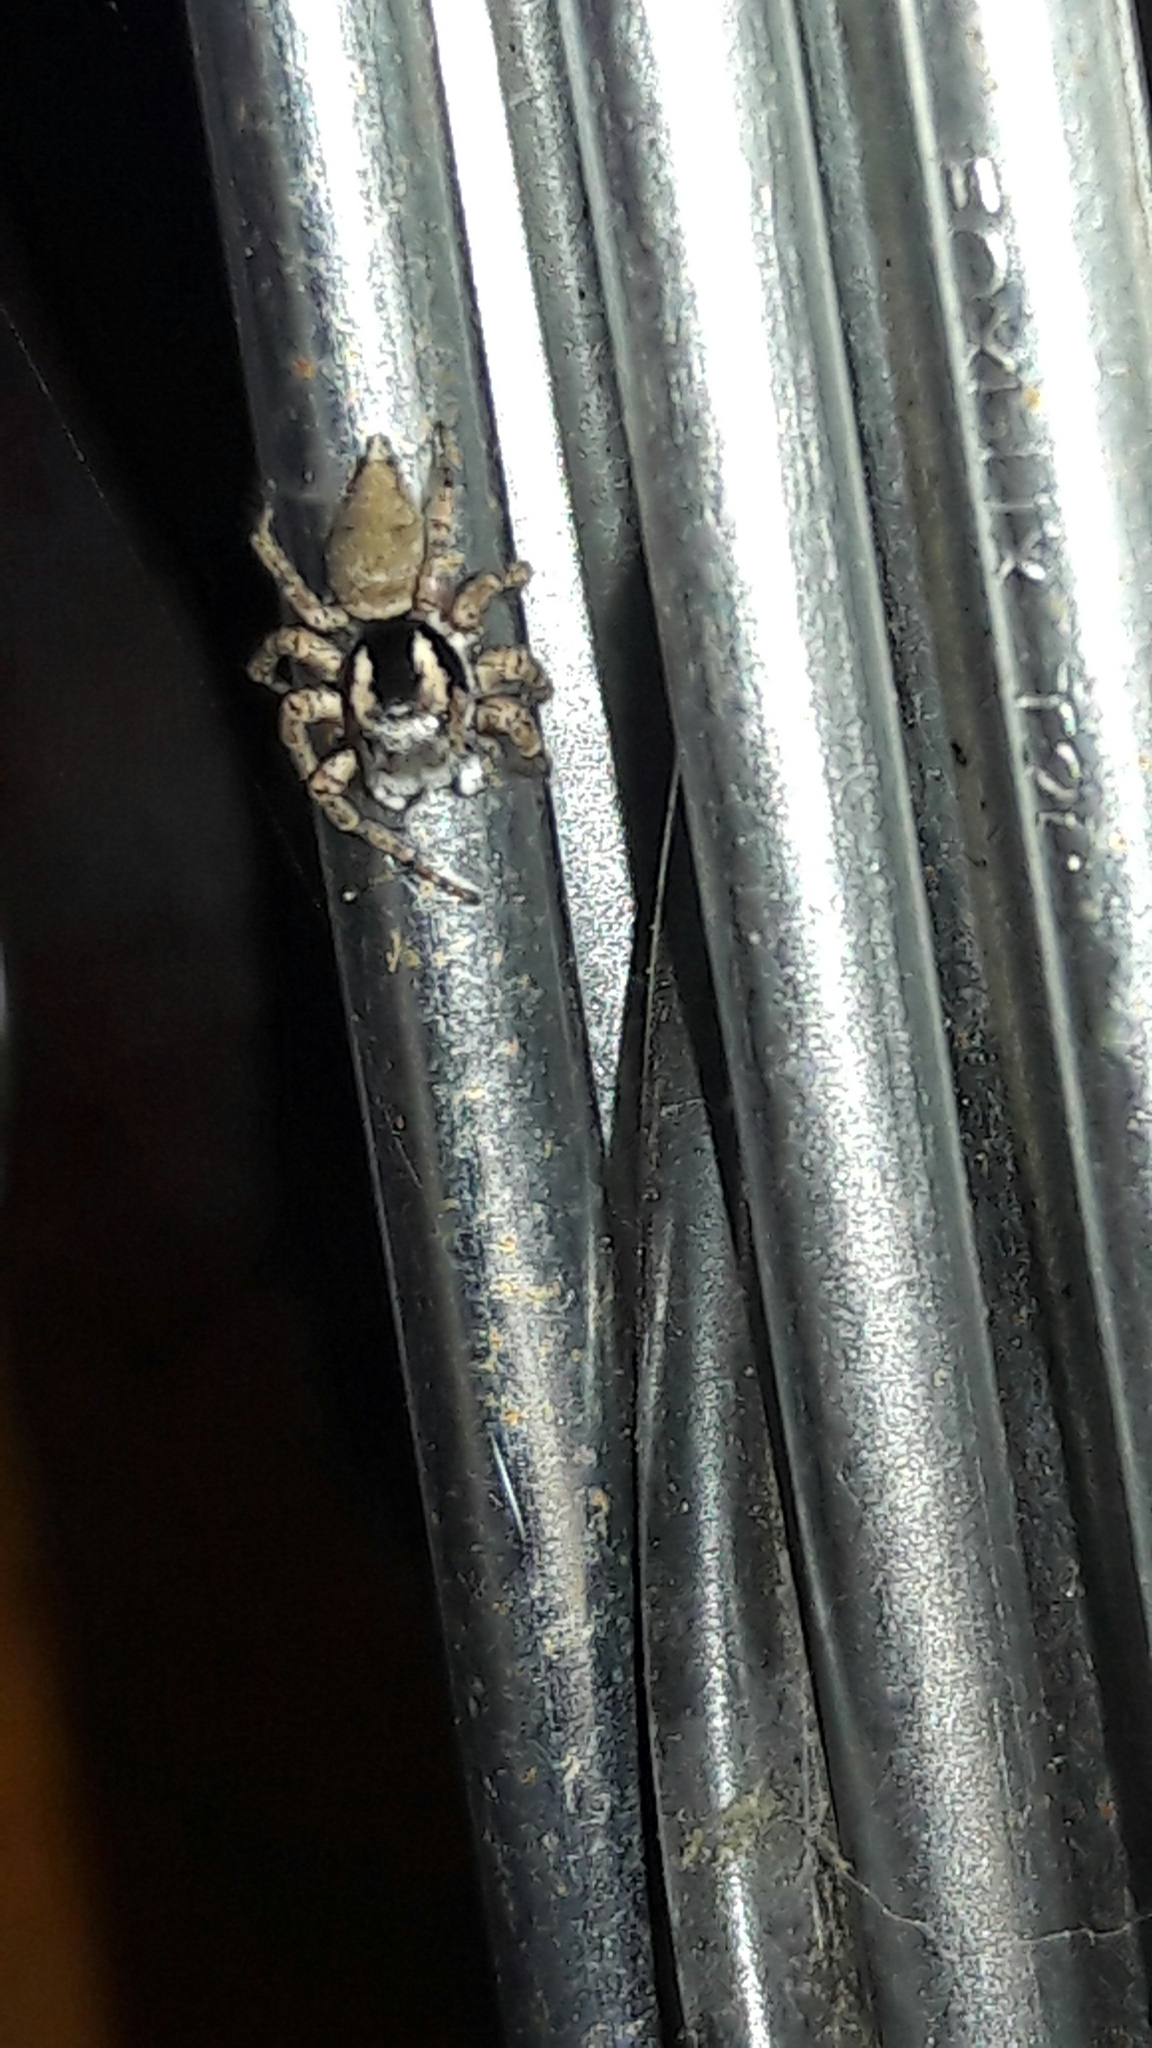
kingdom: Animalia
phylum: Arthropoda
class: Arachnida
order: Araneae
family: Salticidae
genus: Sumampattus
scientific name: Sumampattus quinqueradiatus
